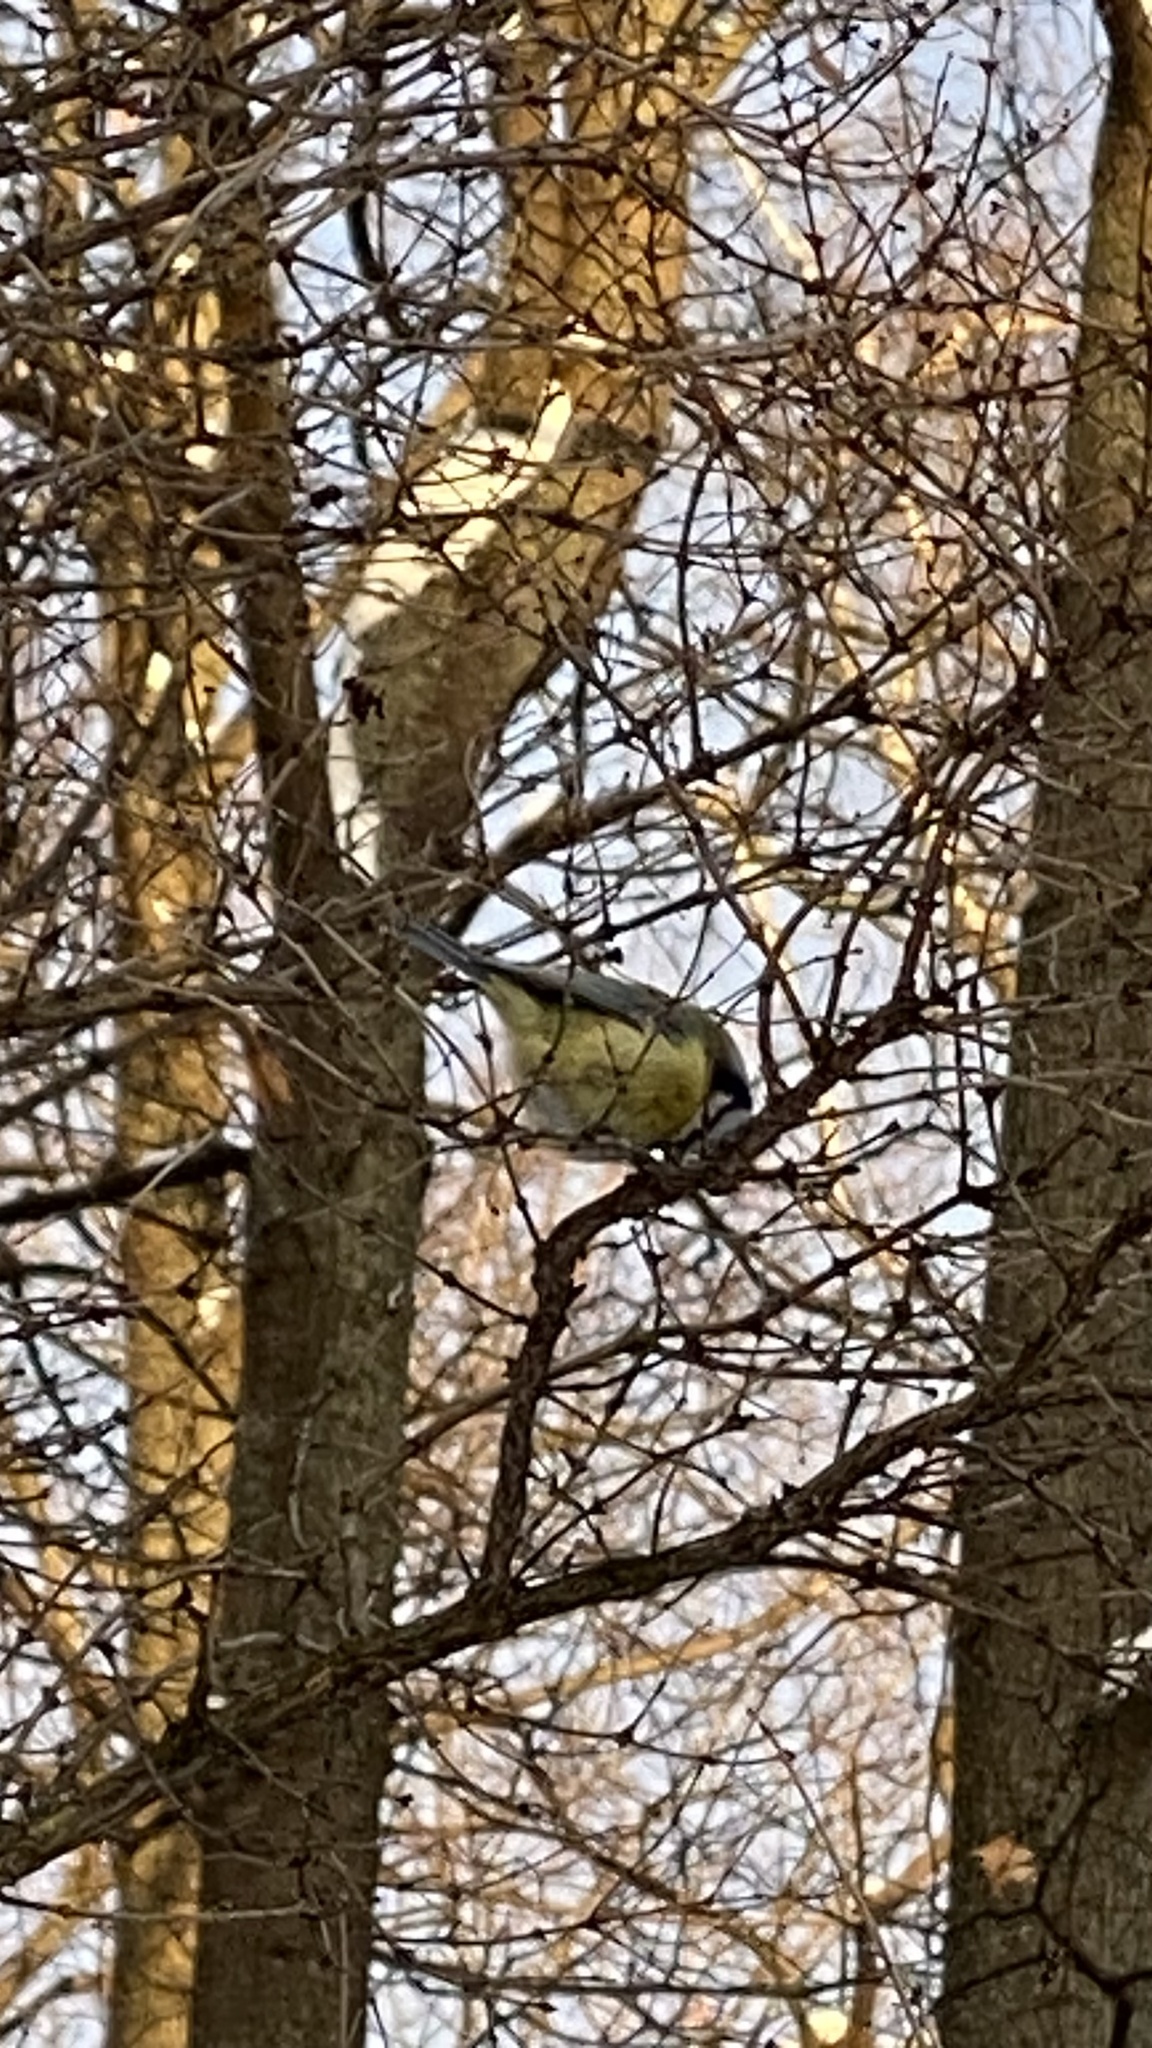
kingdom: Animalia
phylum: Chordata
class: Aves
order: Passeriformes
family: Paridae
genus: Cyanistes
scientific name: Cyanistes caeruleus
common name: Eurasian blue tit
